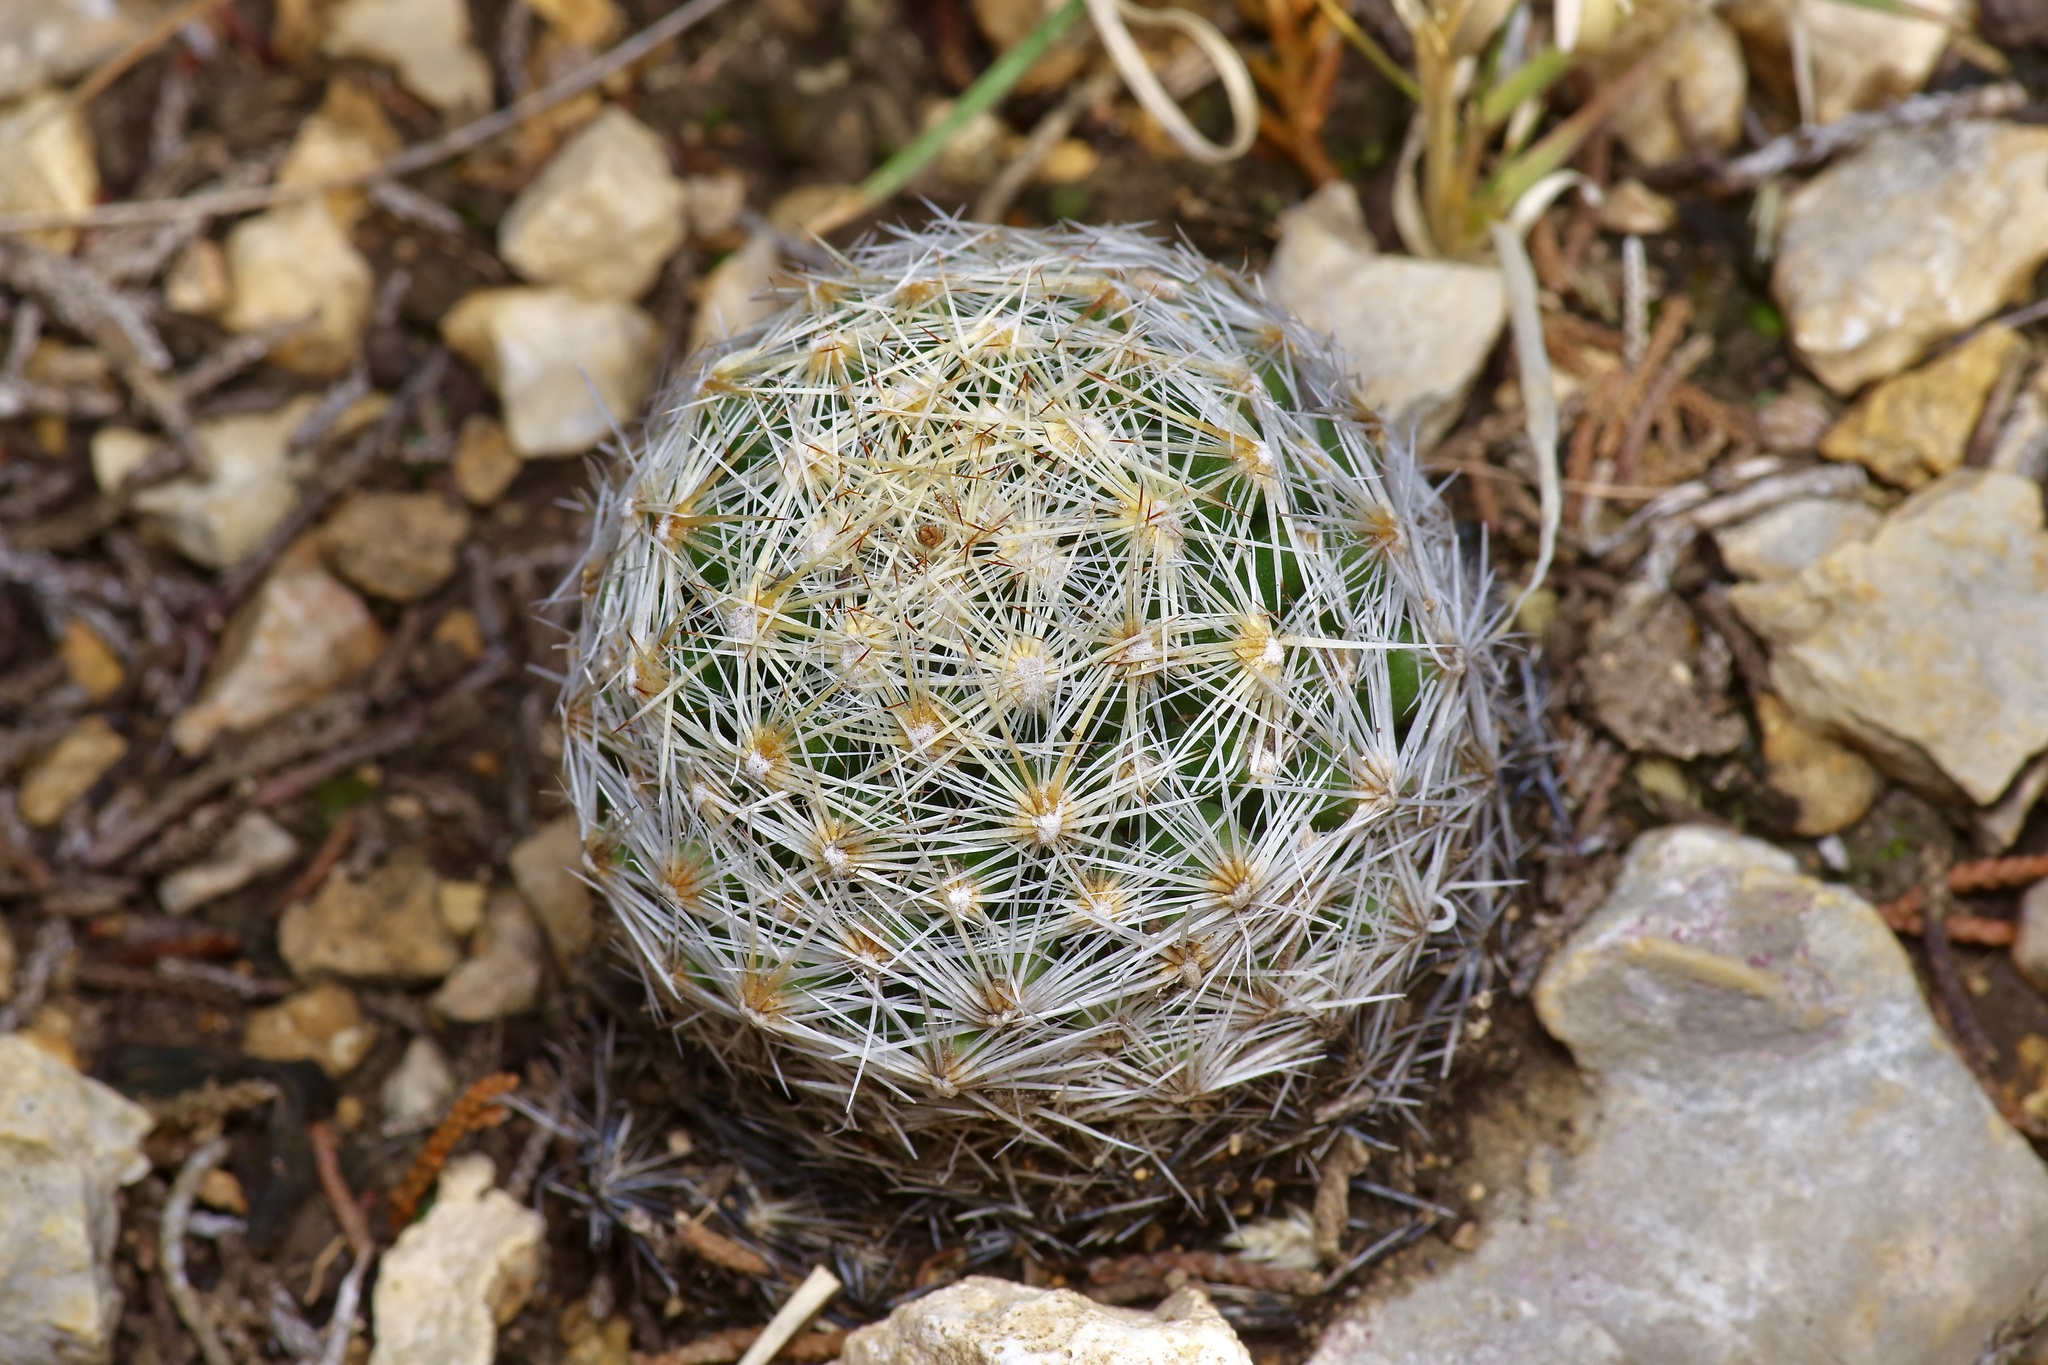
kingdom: Plantae
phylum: Tracheophyta
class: Magnoliopsida
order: Caryophyllales
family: Cactaceae
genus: Pelecyphora
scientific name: Pelecyphora vivipara
